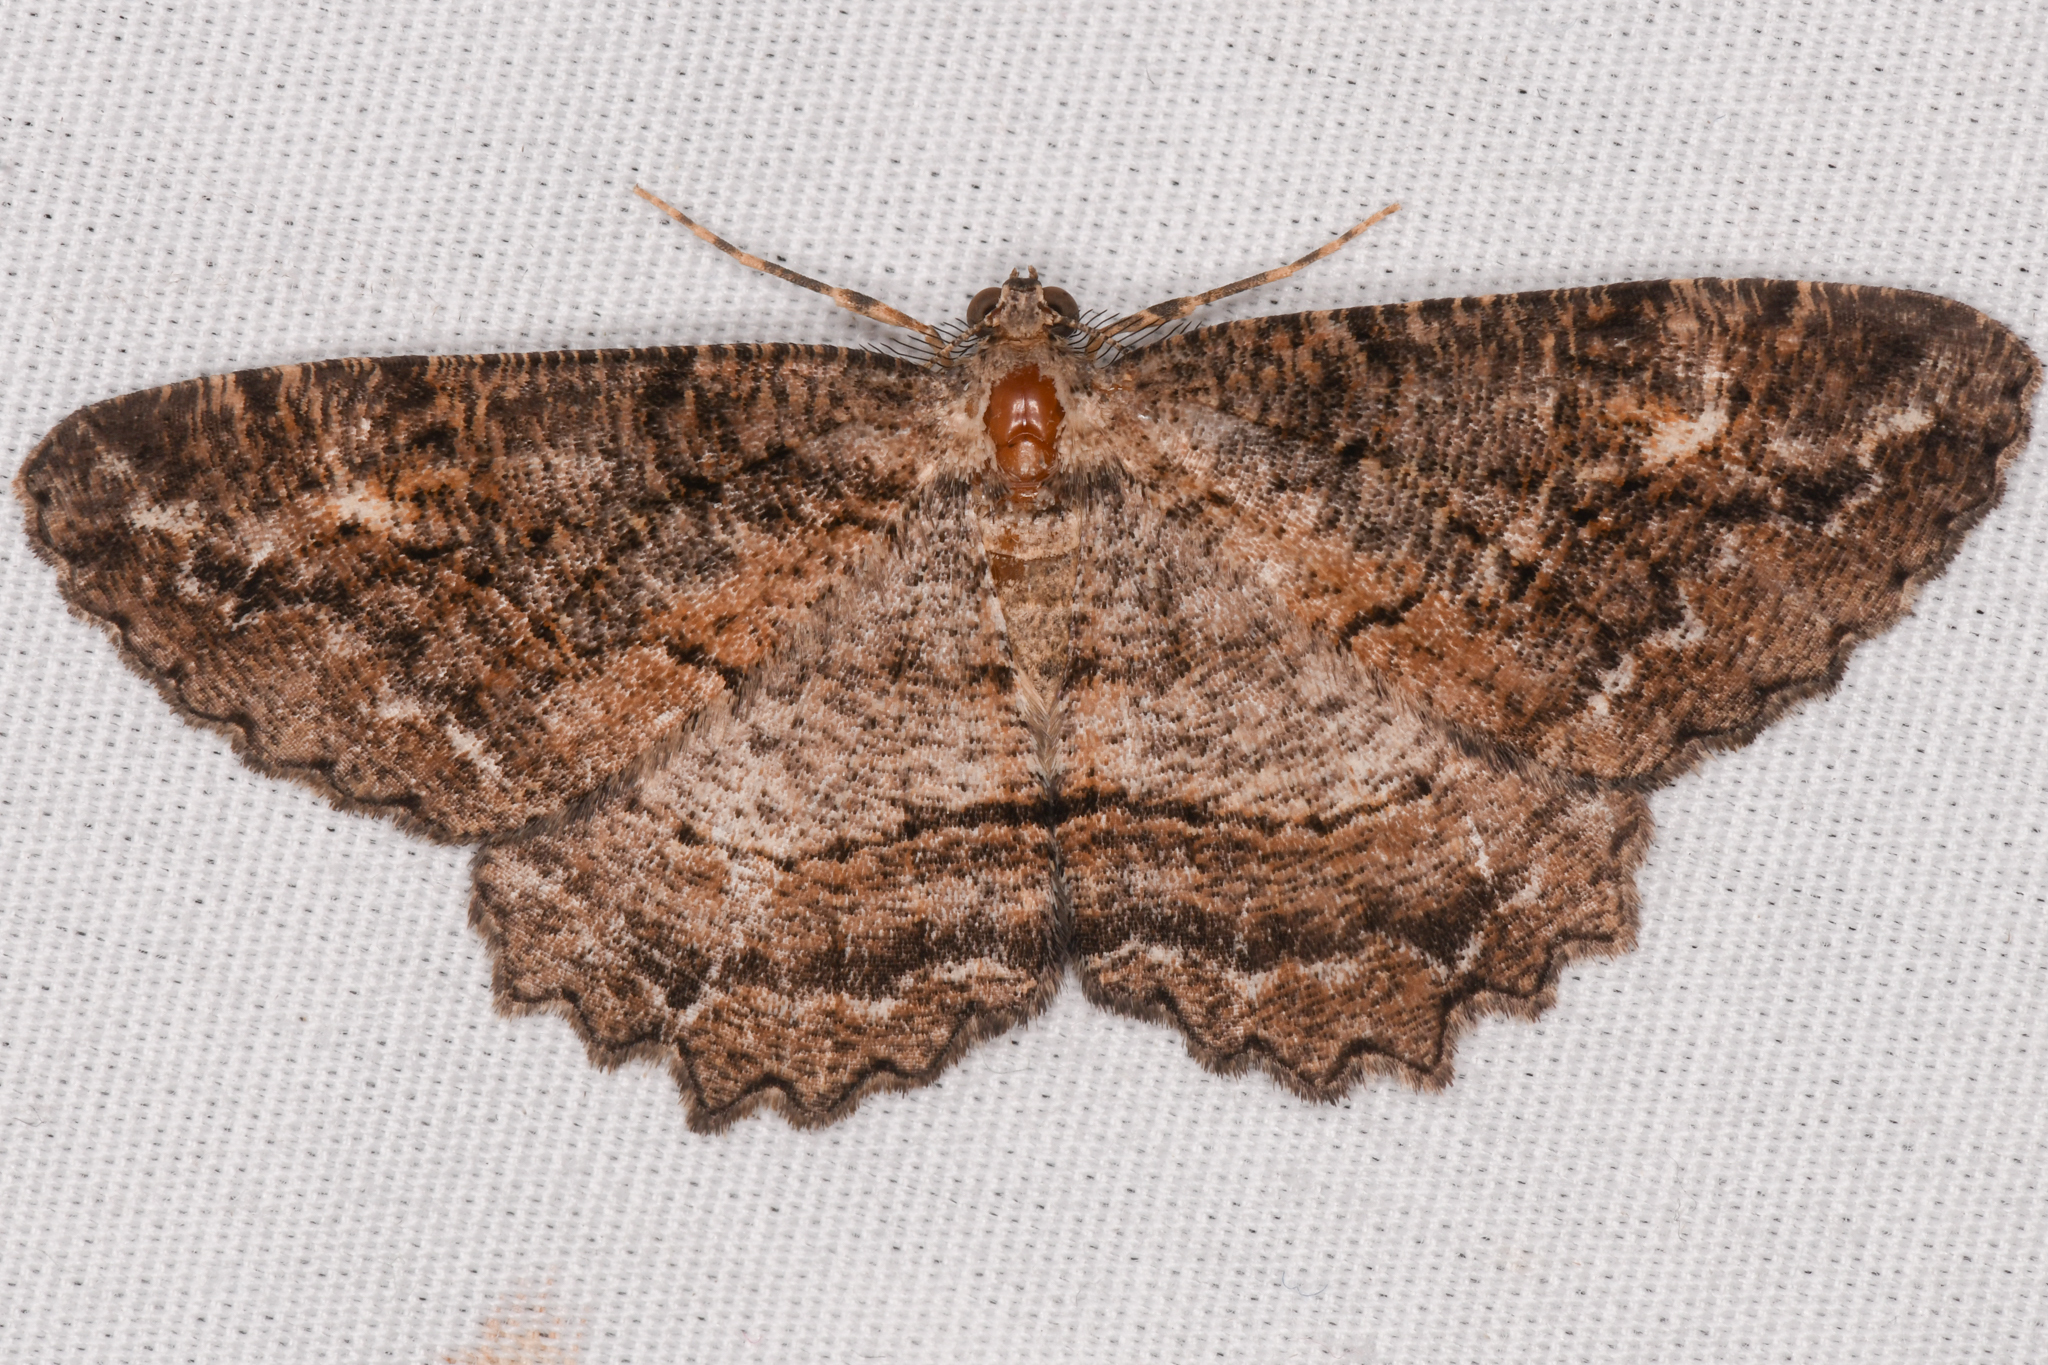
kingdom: Animalia
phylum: Arthropoda
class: Insecta
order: Lepidoptera
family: Geometridae
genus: Neoalcis
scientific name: Neoalcis californiaria
